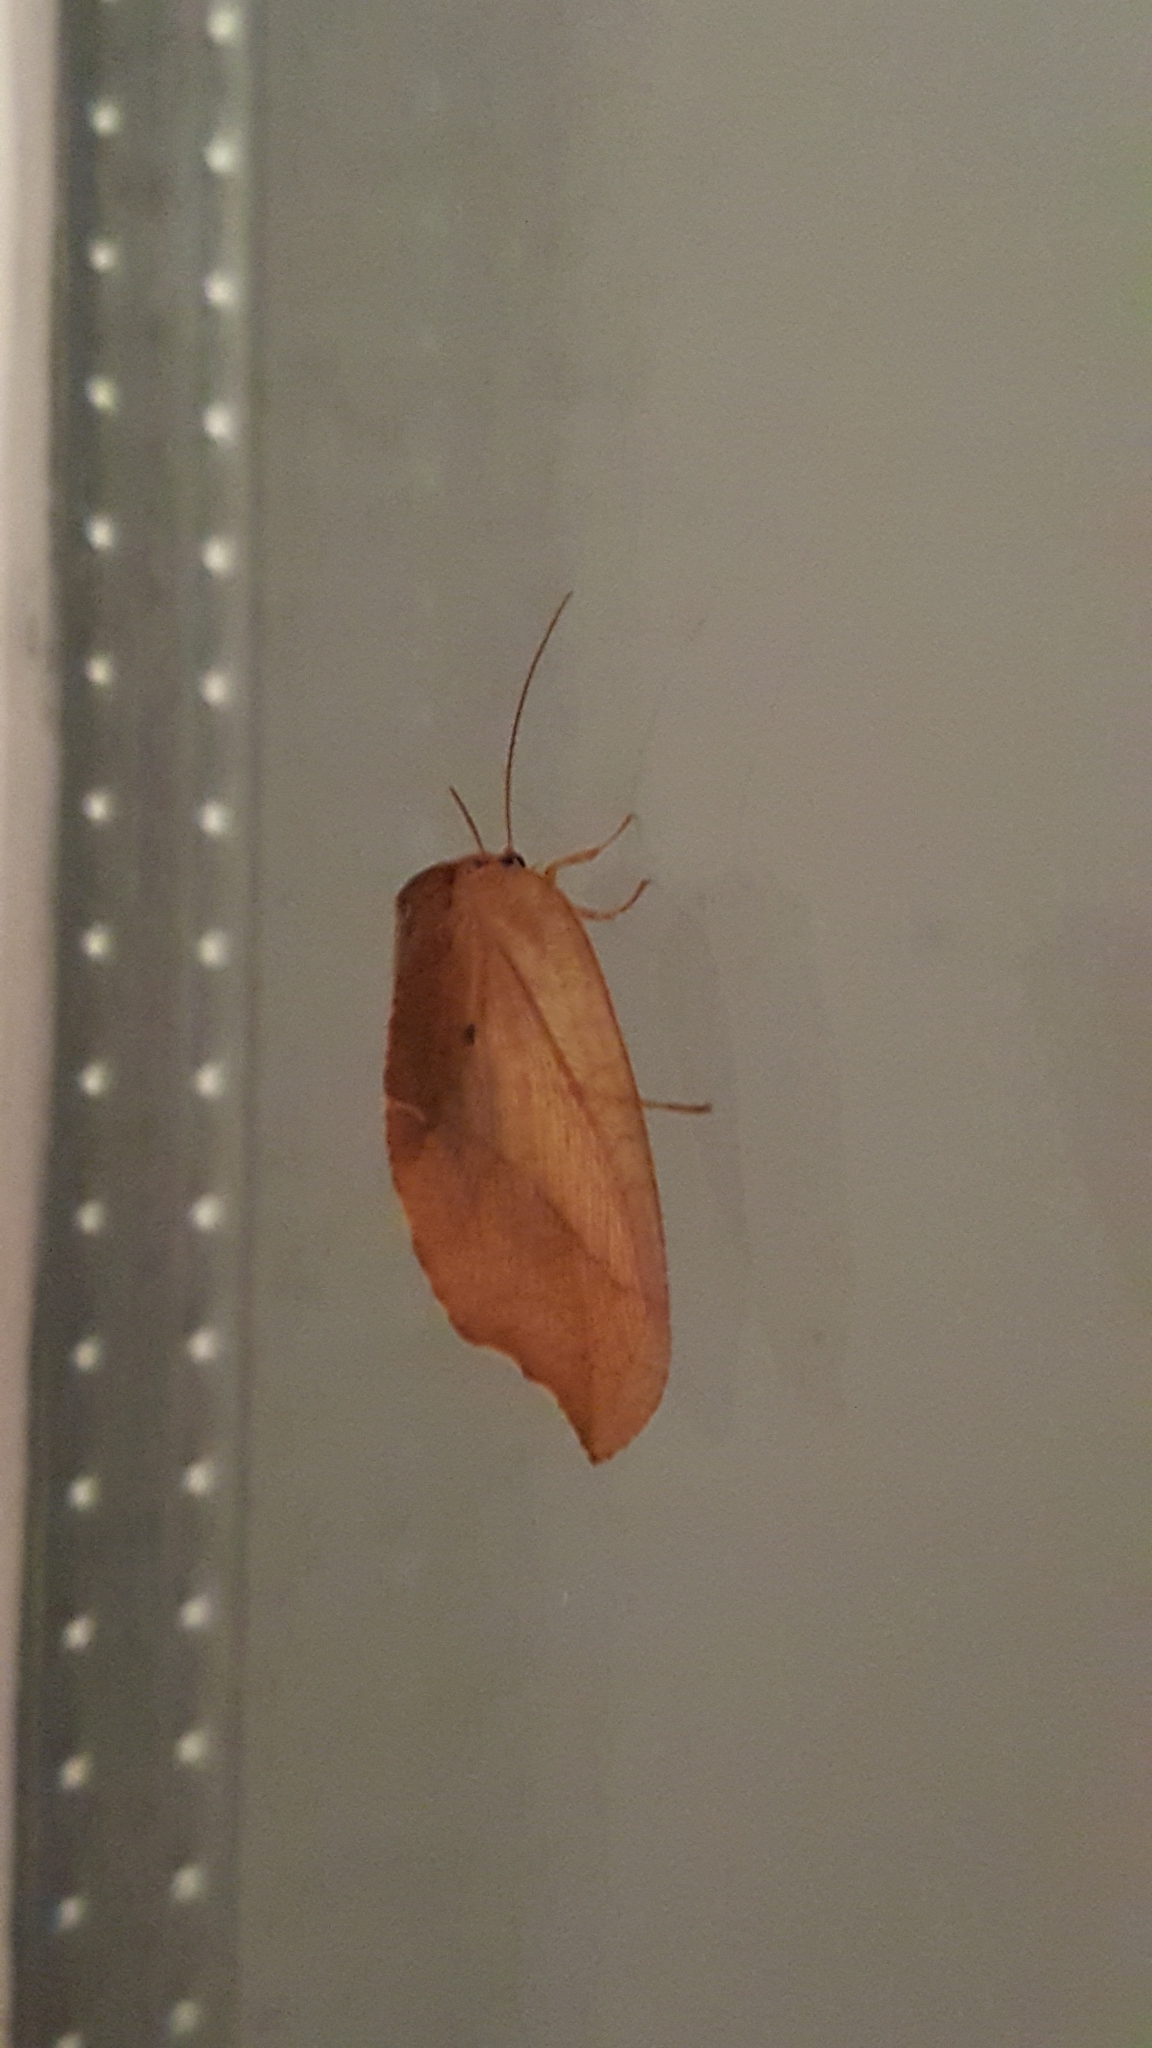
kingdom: Animalia
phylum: Arthropoda
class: Insecta
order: Neuroptera
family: Hemerobiidae
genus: Drepanepteryx
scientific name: Drepanepteryx phalaenoides
